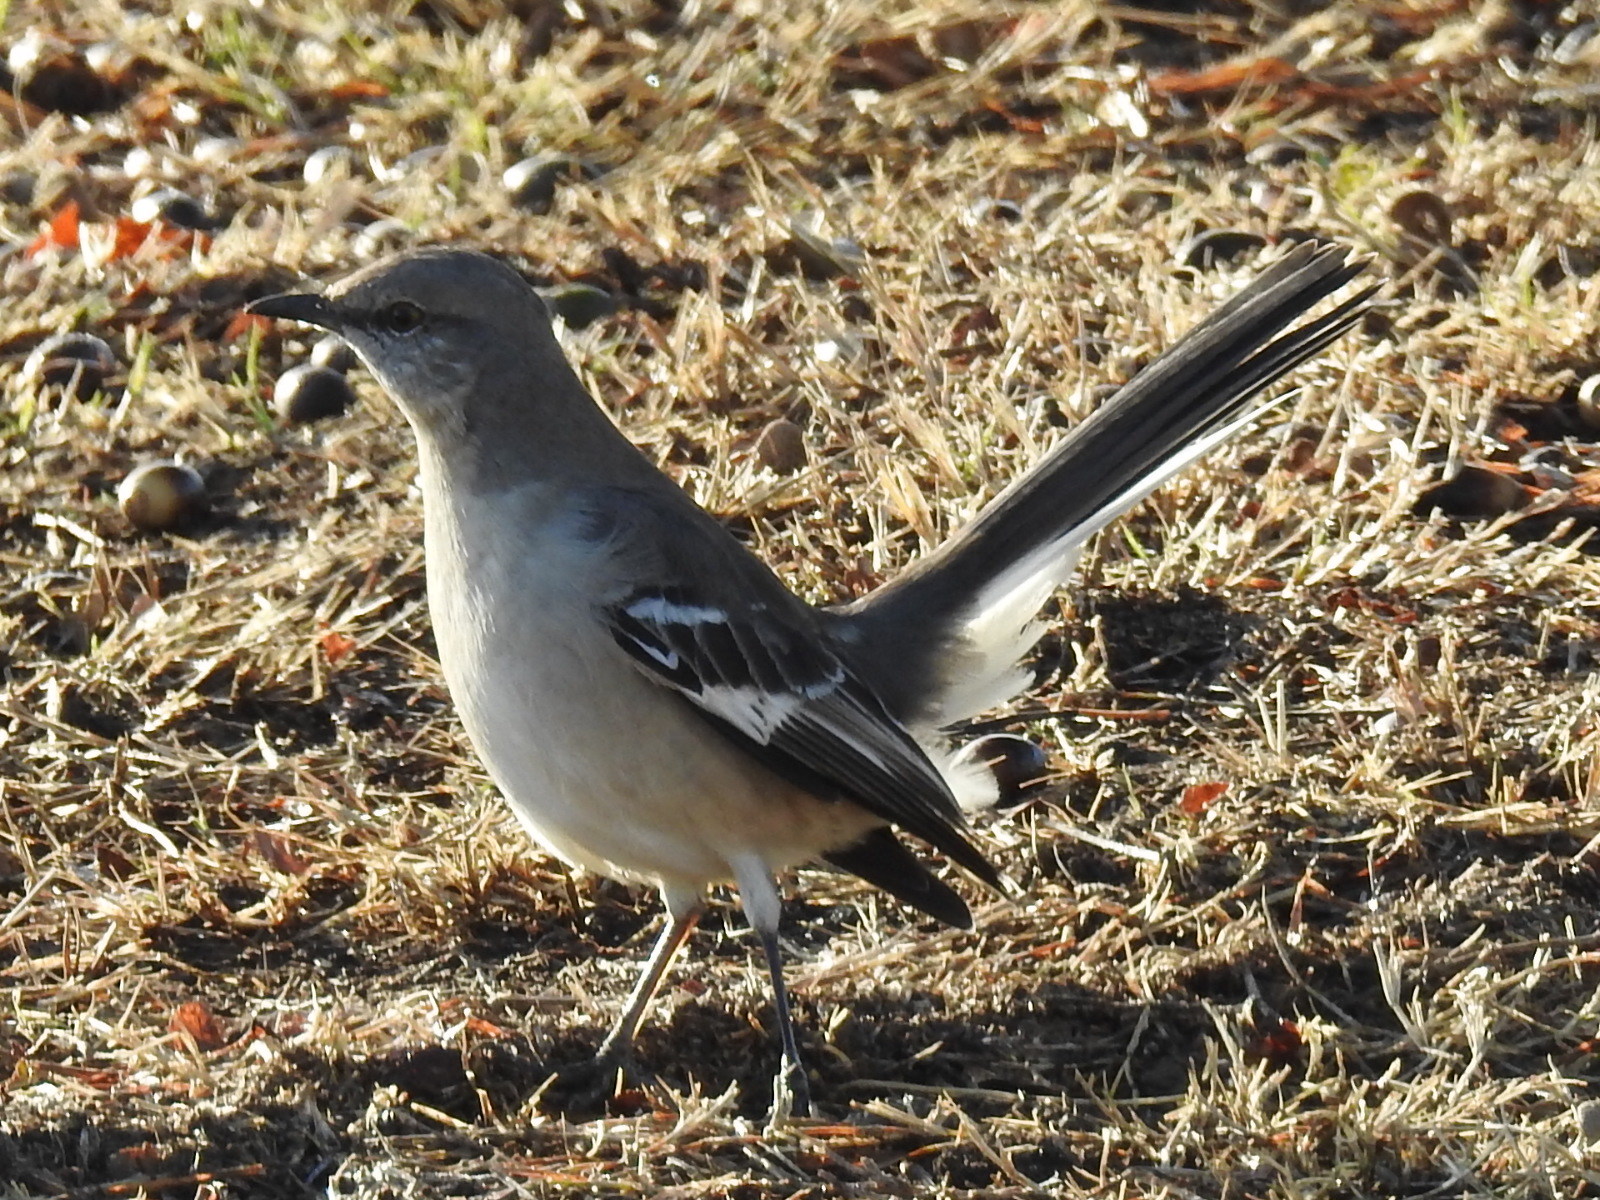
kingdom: Animalia
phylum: Chordata
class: Aves
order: Passeriformes
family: Mimidae
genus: Mimus
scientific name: Mimus polyglottos
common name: Northern mockingbird
